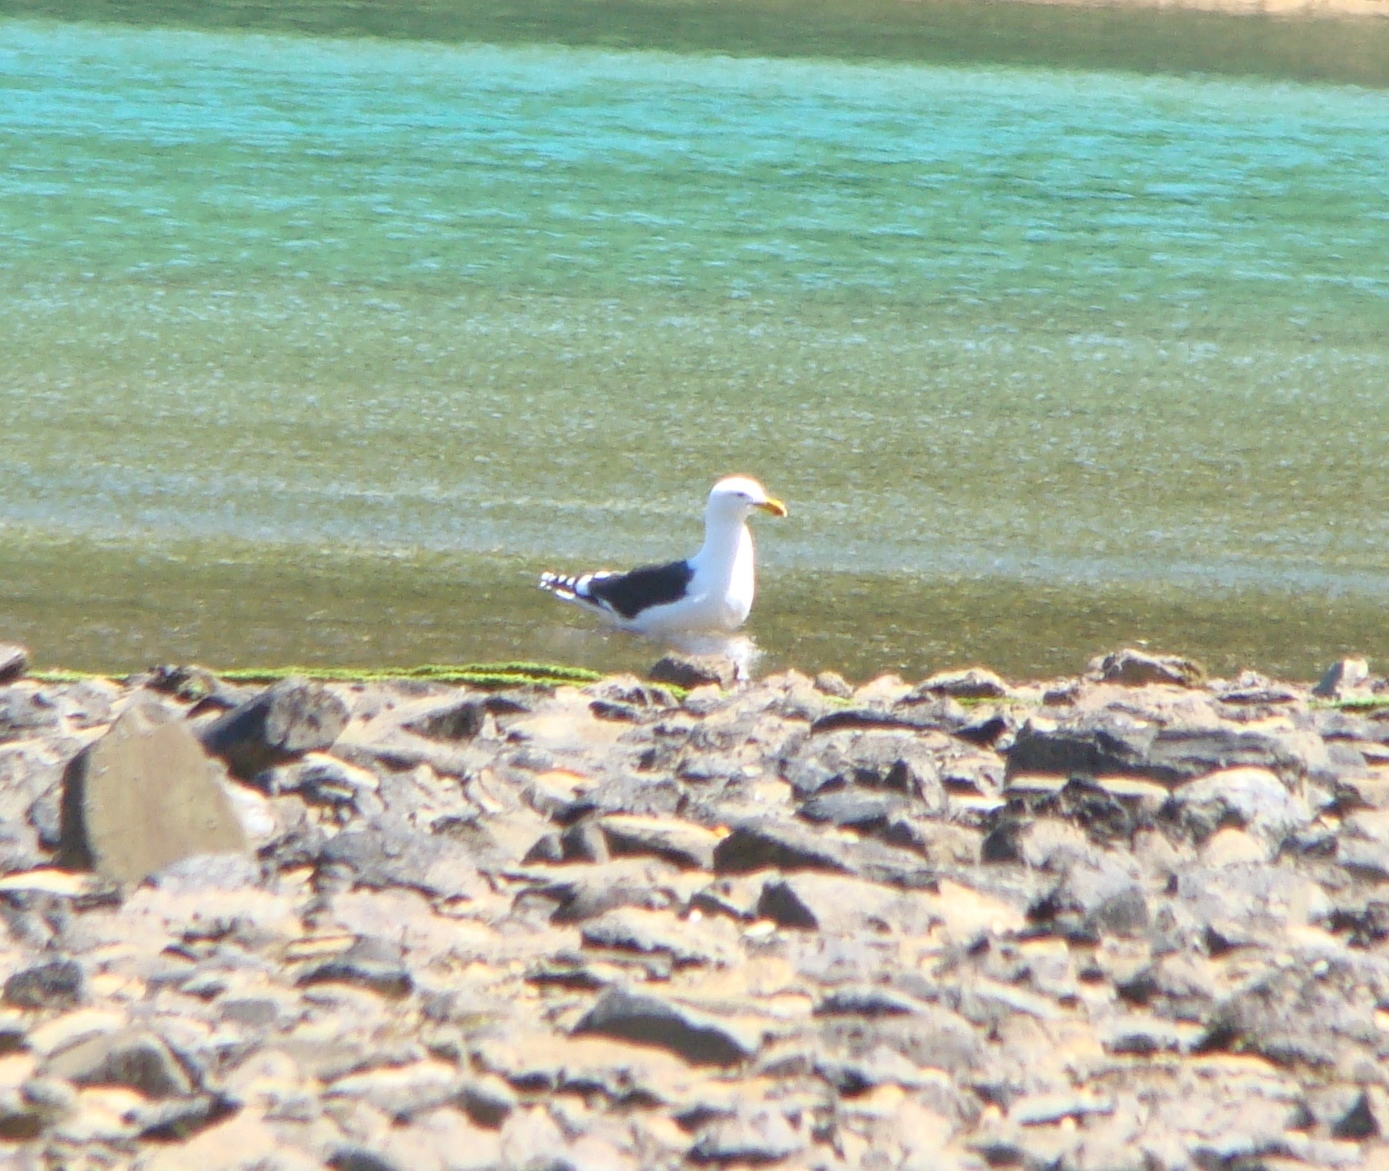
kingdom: Animalia
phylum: Chordata
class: Aves
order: Charadriiformes
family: Laridae
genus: Larus
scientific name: Larus dominicanus
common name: Kelp gull
